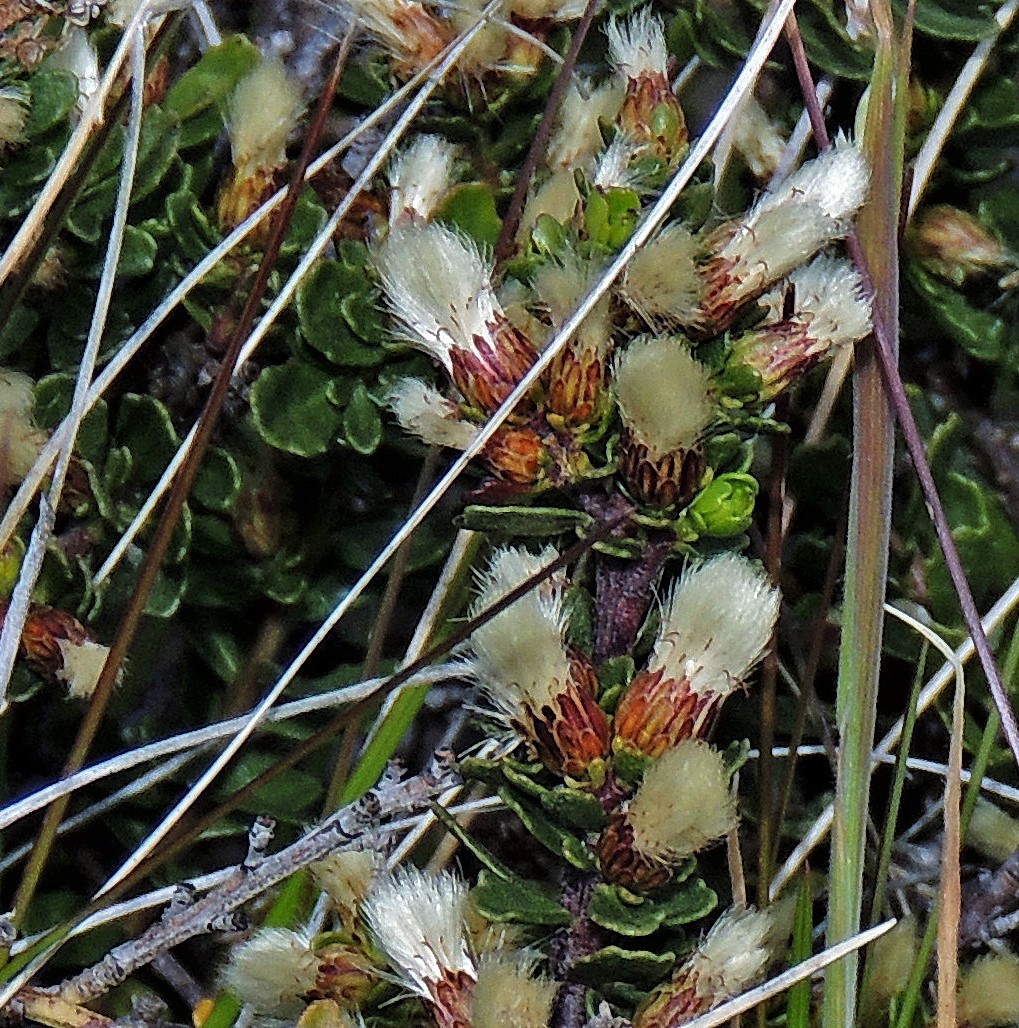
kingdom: Plantae
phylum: Tracheophyta
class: Magnoliopsida
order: Asterales
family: Asteraceae
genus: Baccharis
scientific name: Baccharis magellanica
